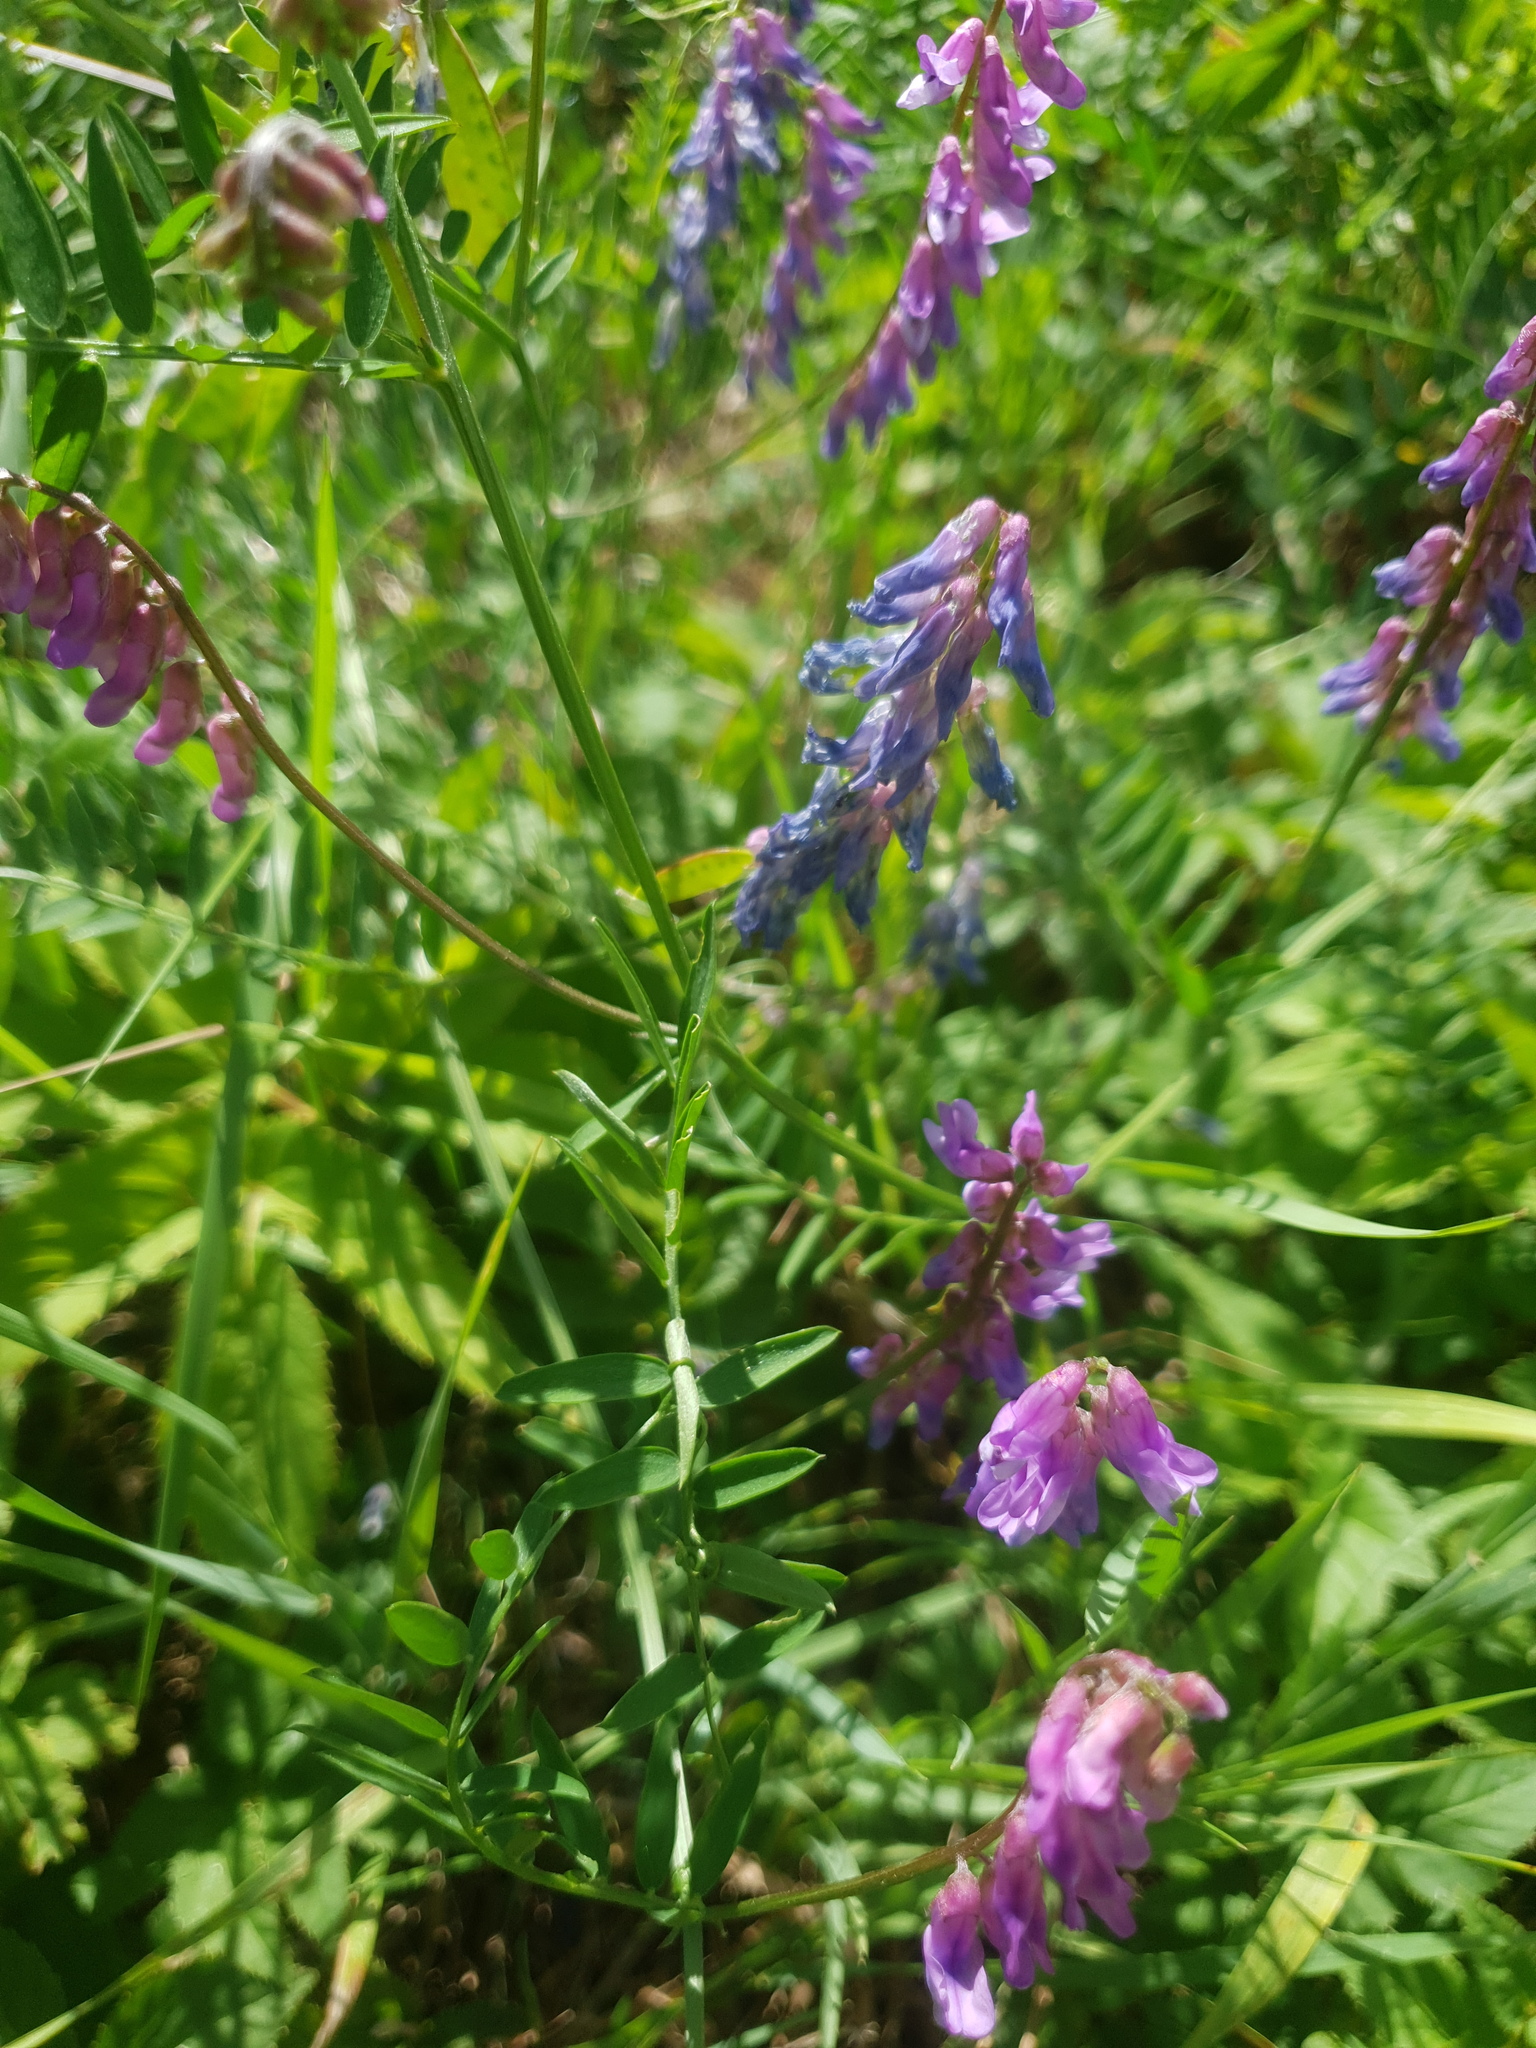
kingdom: Plantae
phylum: Tracheophyta
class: Magnoliopsida
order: Fabales
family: Fabaceae
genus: Vicia
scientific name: Vicia cracca
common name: Bird vetch
